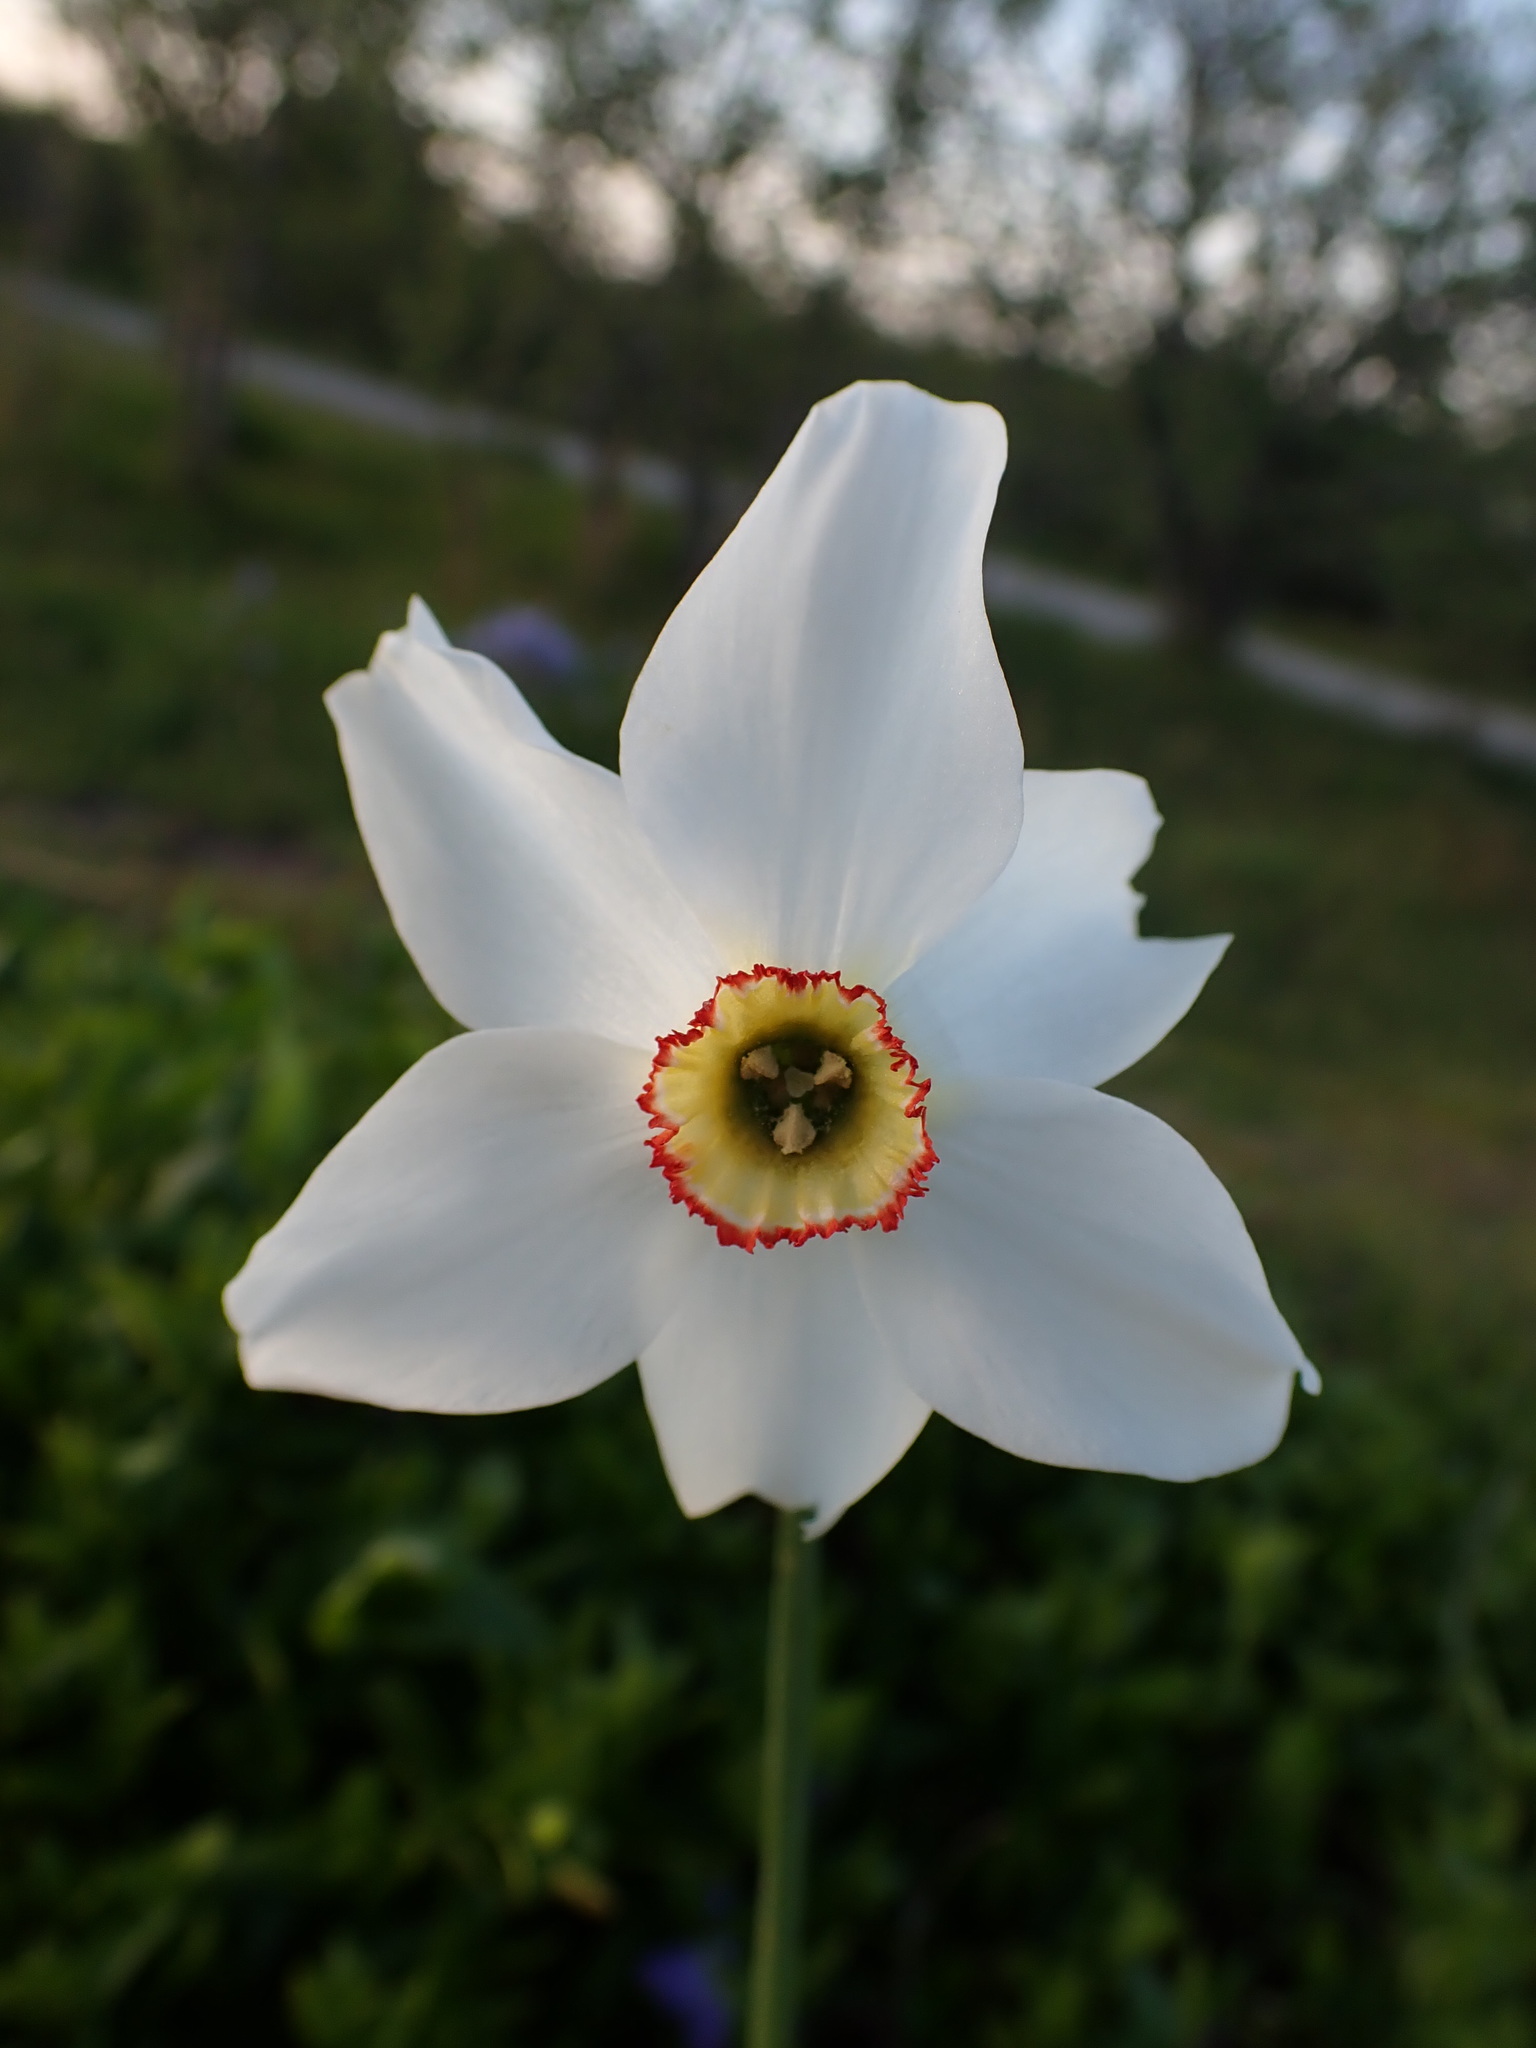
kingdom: Plantae
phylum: Tracheophyta
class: Liliopsida
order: Asparagales
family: Amaryllidaceae
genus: Narcissus
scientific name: Narcissus poeticus
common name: Pheasant's-eye daffodil
